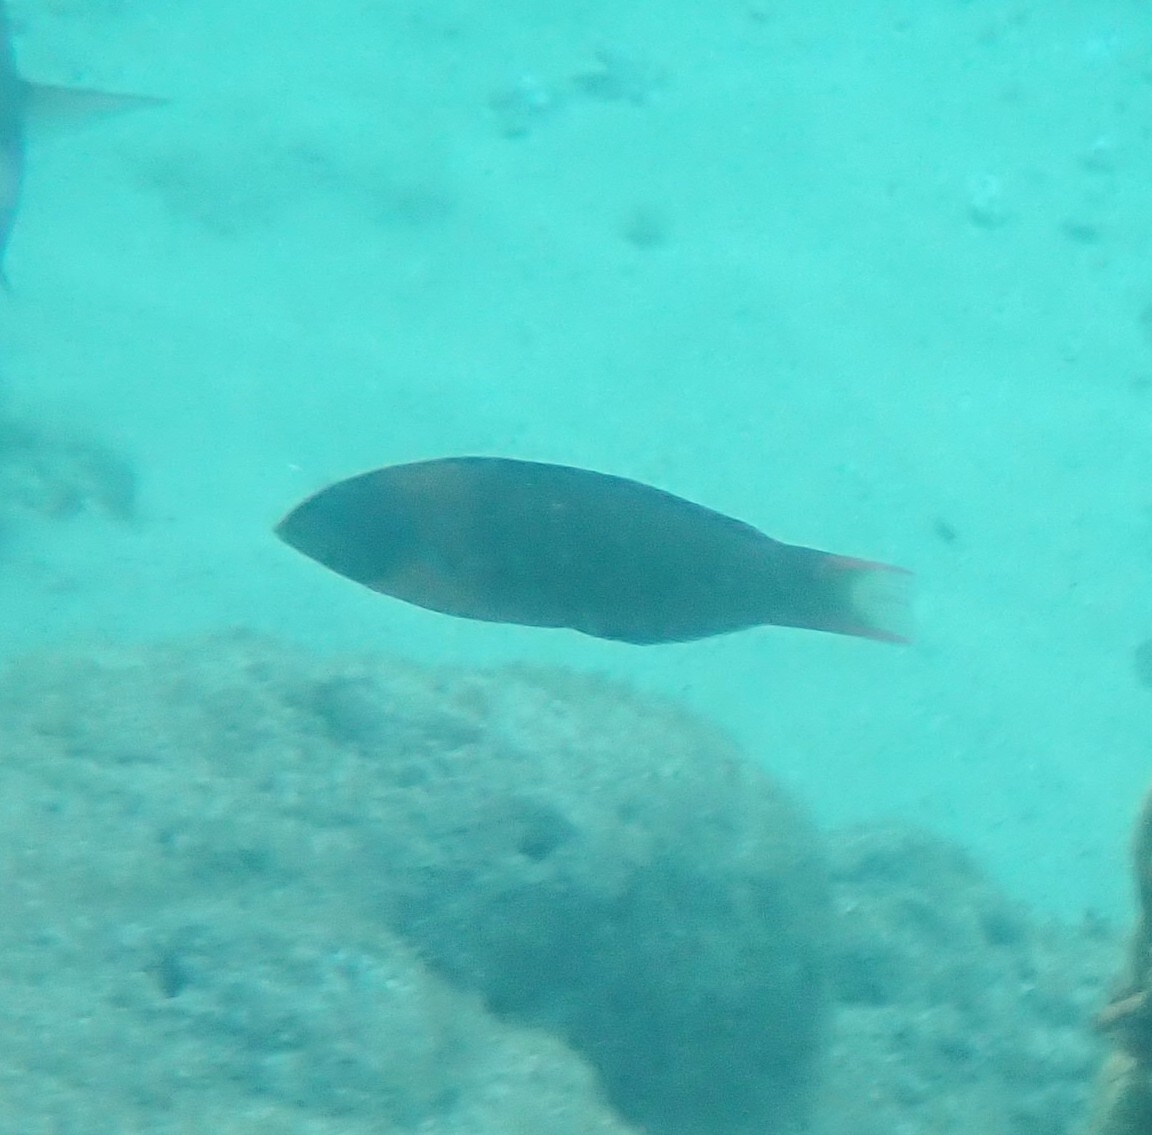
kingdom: Animalia
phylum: Chordata
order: Perciformes
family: Labridae
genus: Thalassoma
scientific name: Thalassoma duperrey
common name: Saddle wrasse
